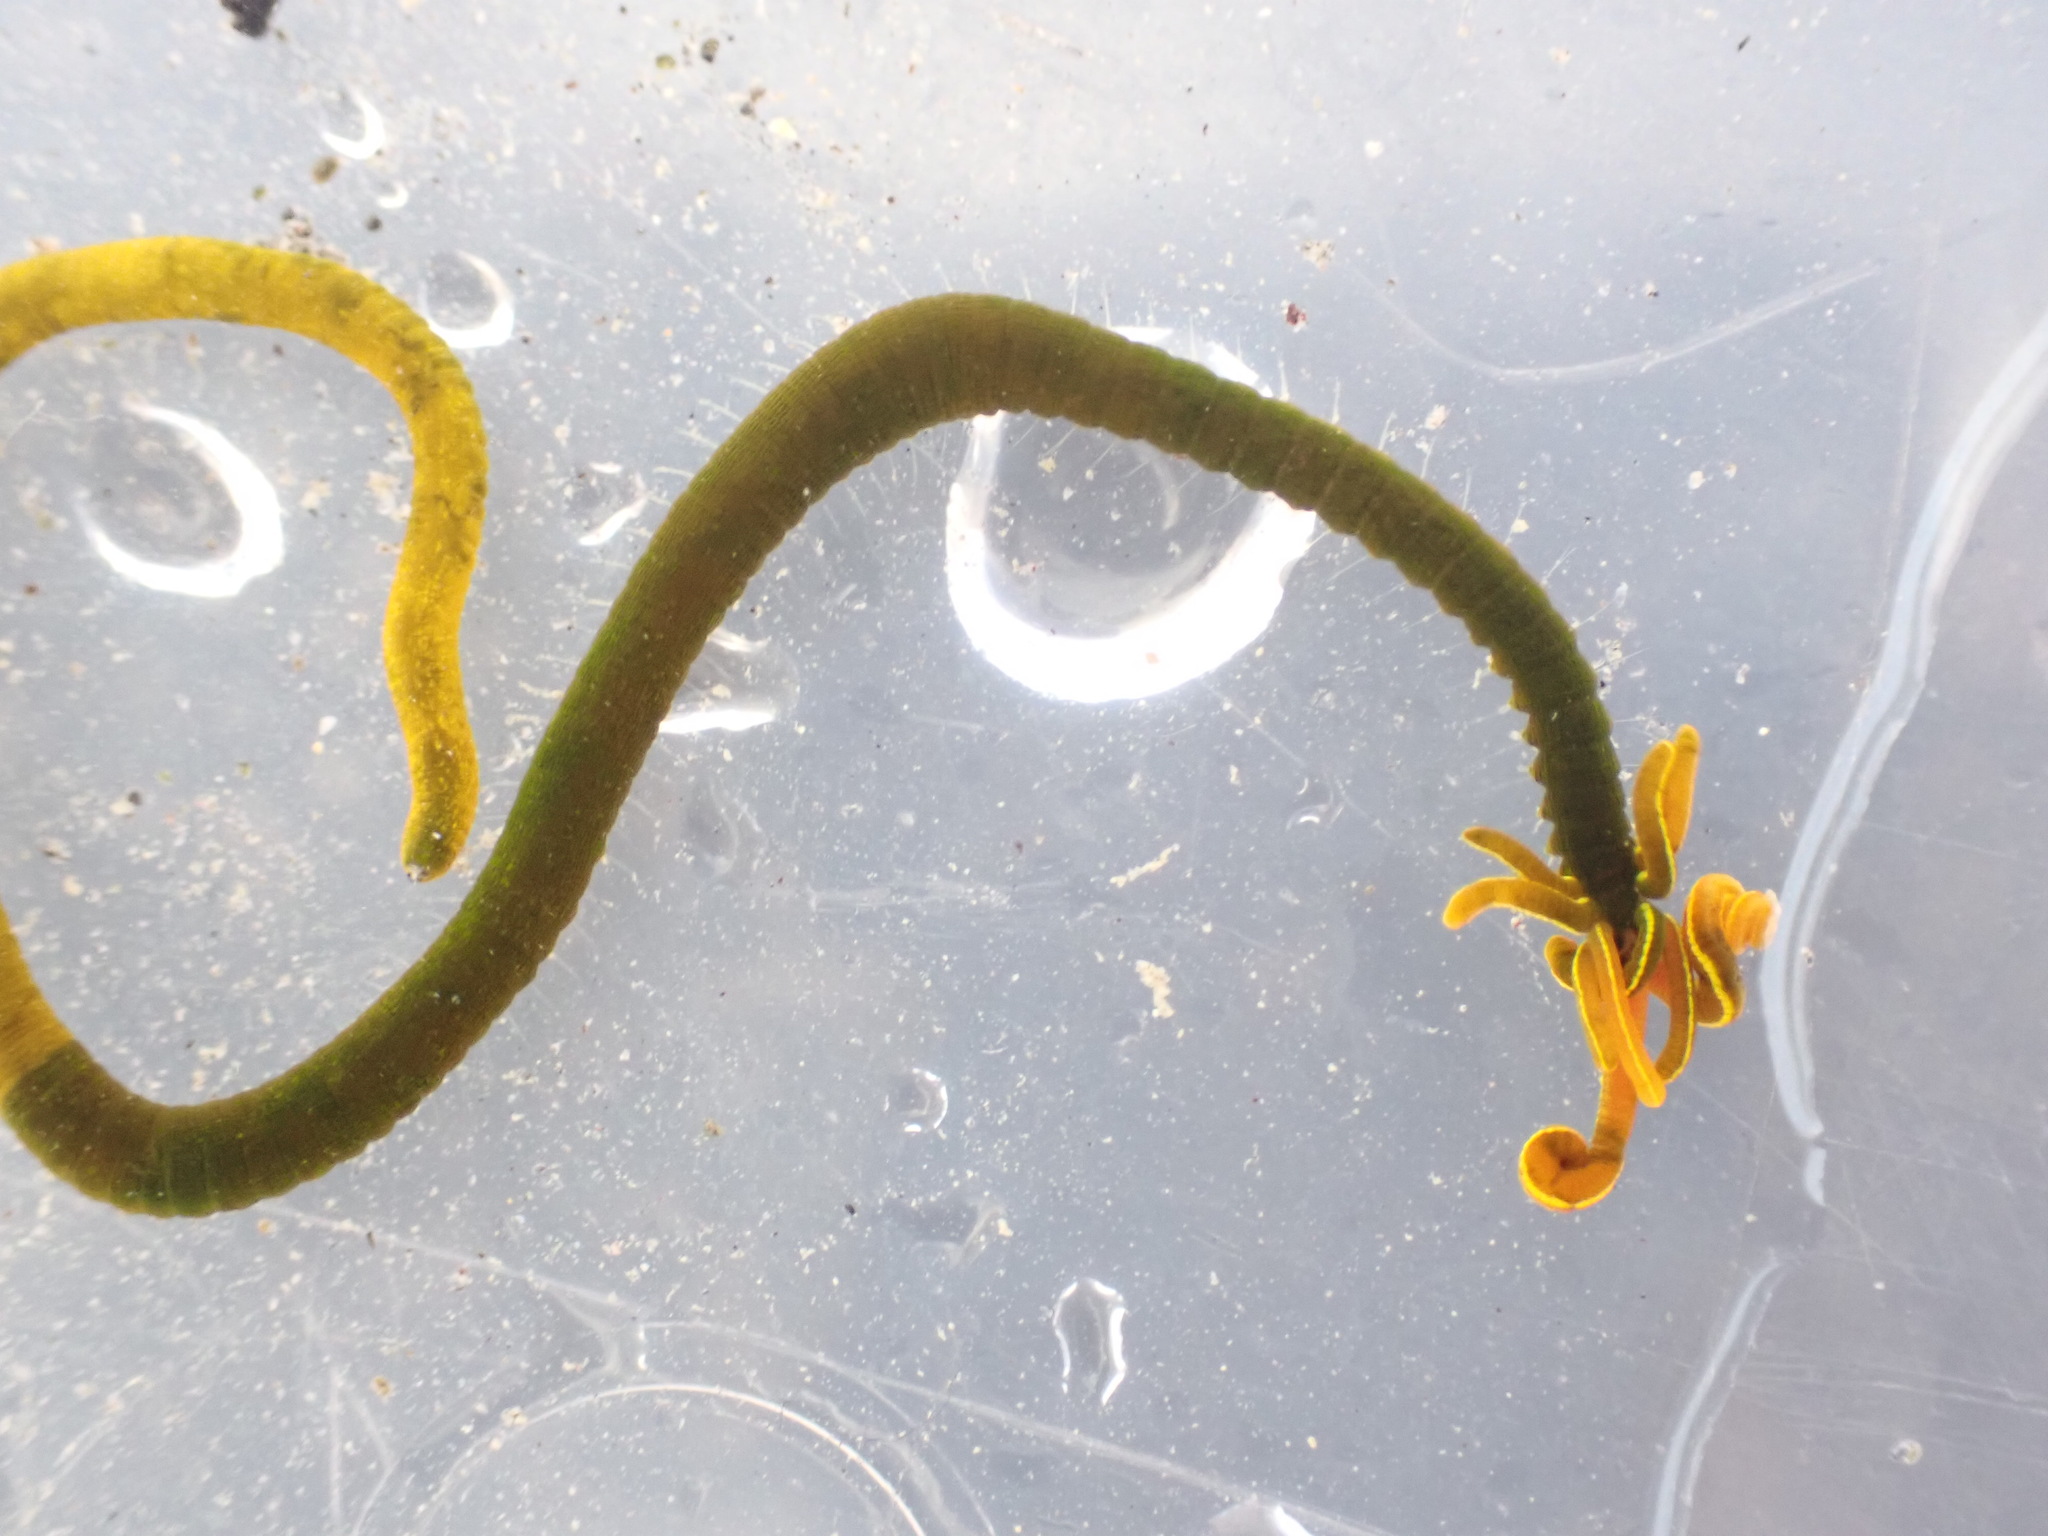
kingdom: Animalia
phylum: Annelida
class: Polychaeta
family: Acrocirridae
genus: Acrocirrus
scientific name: Acrocirrus trisectus
